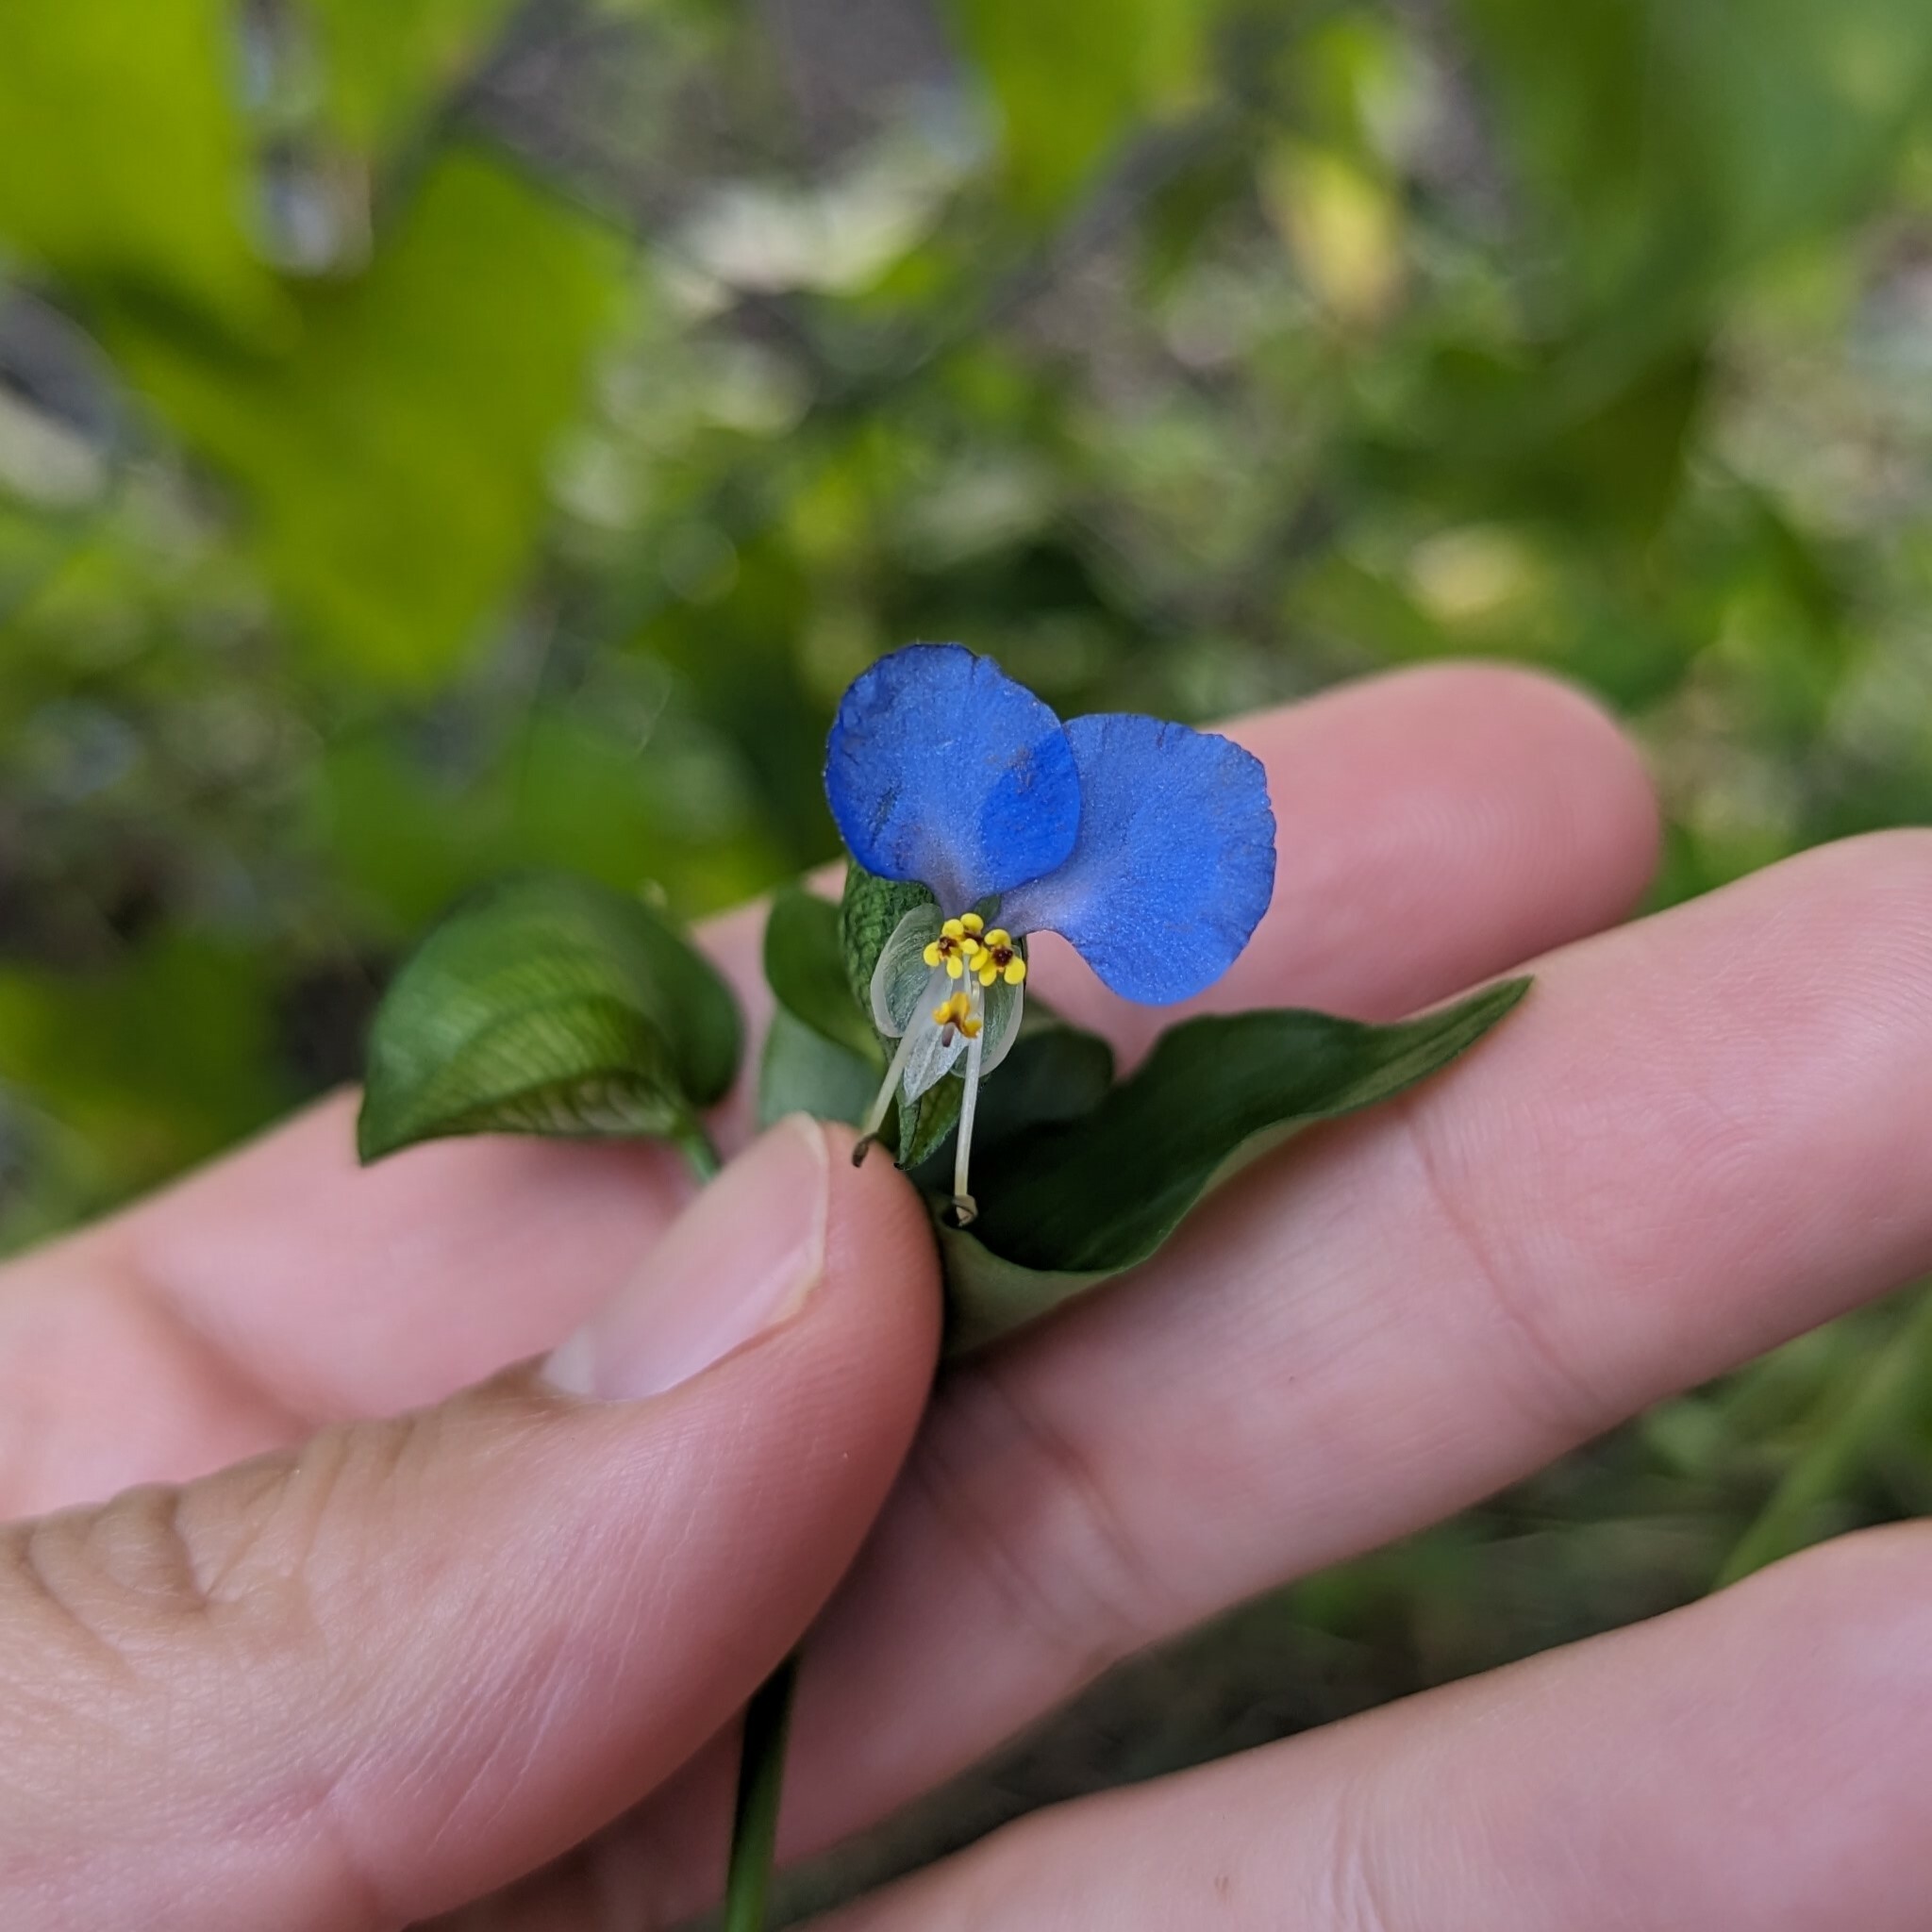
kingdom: Plantae
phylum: Tracheophyta
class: Liliopsida
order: Commelinales
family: Commelinaceae
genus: Commelina
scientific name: Commelina communis
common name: Asiatic dayflower
